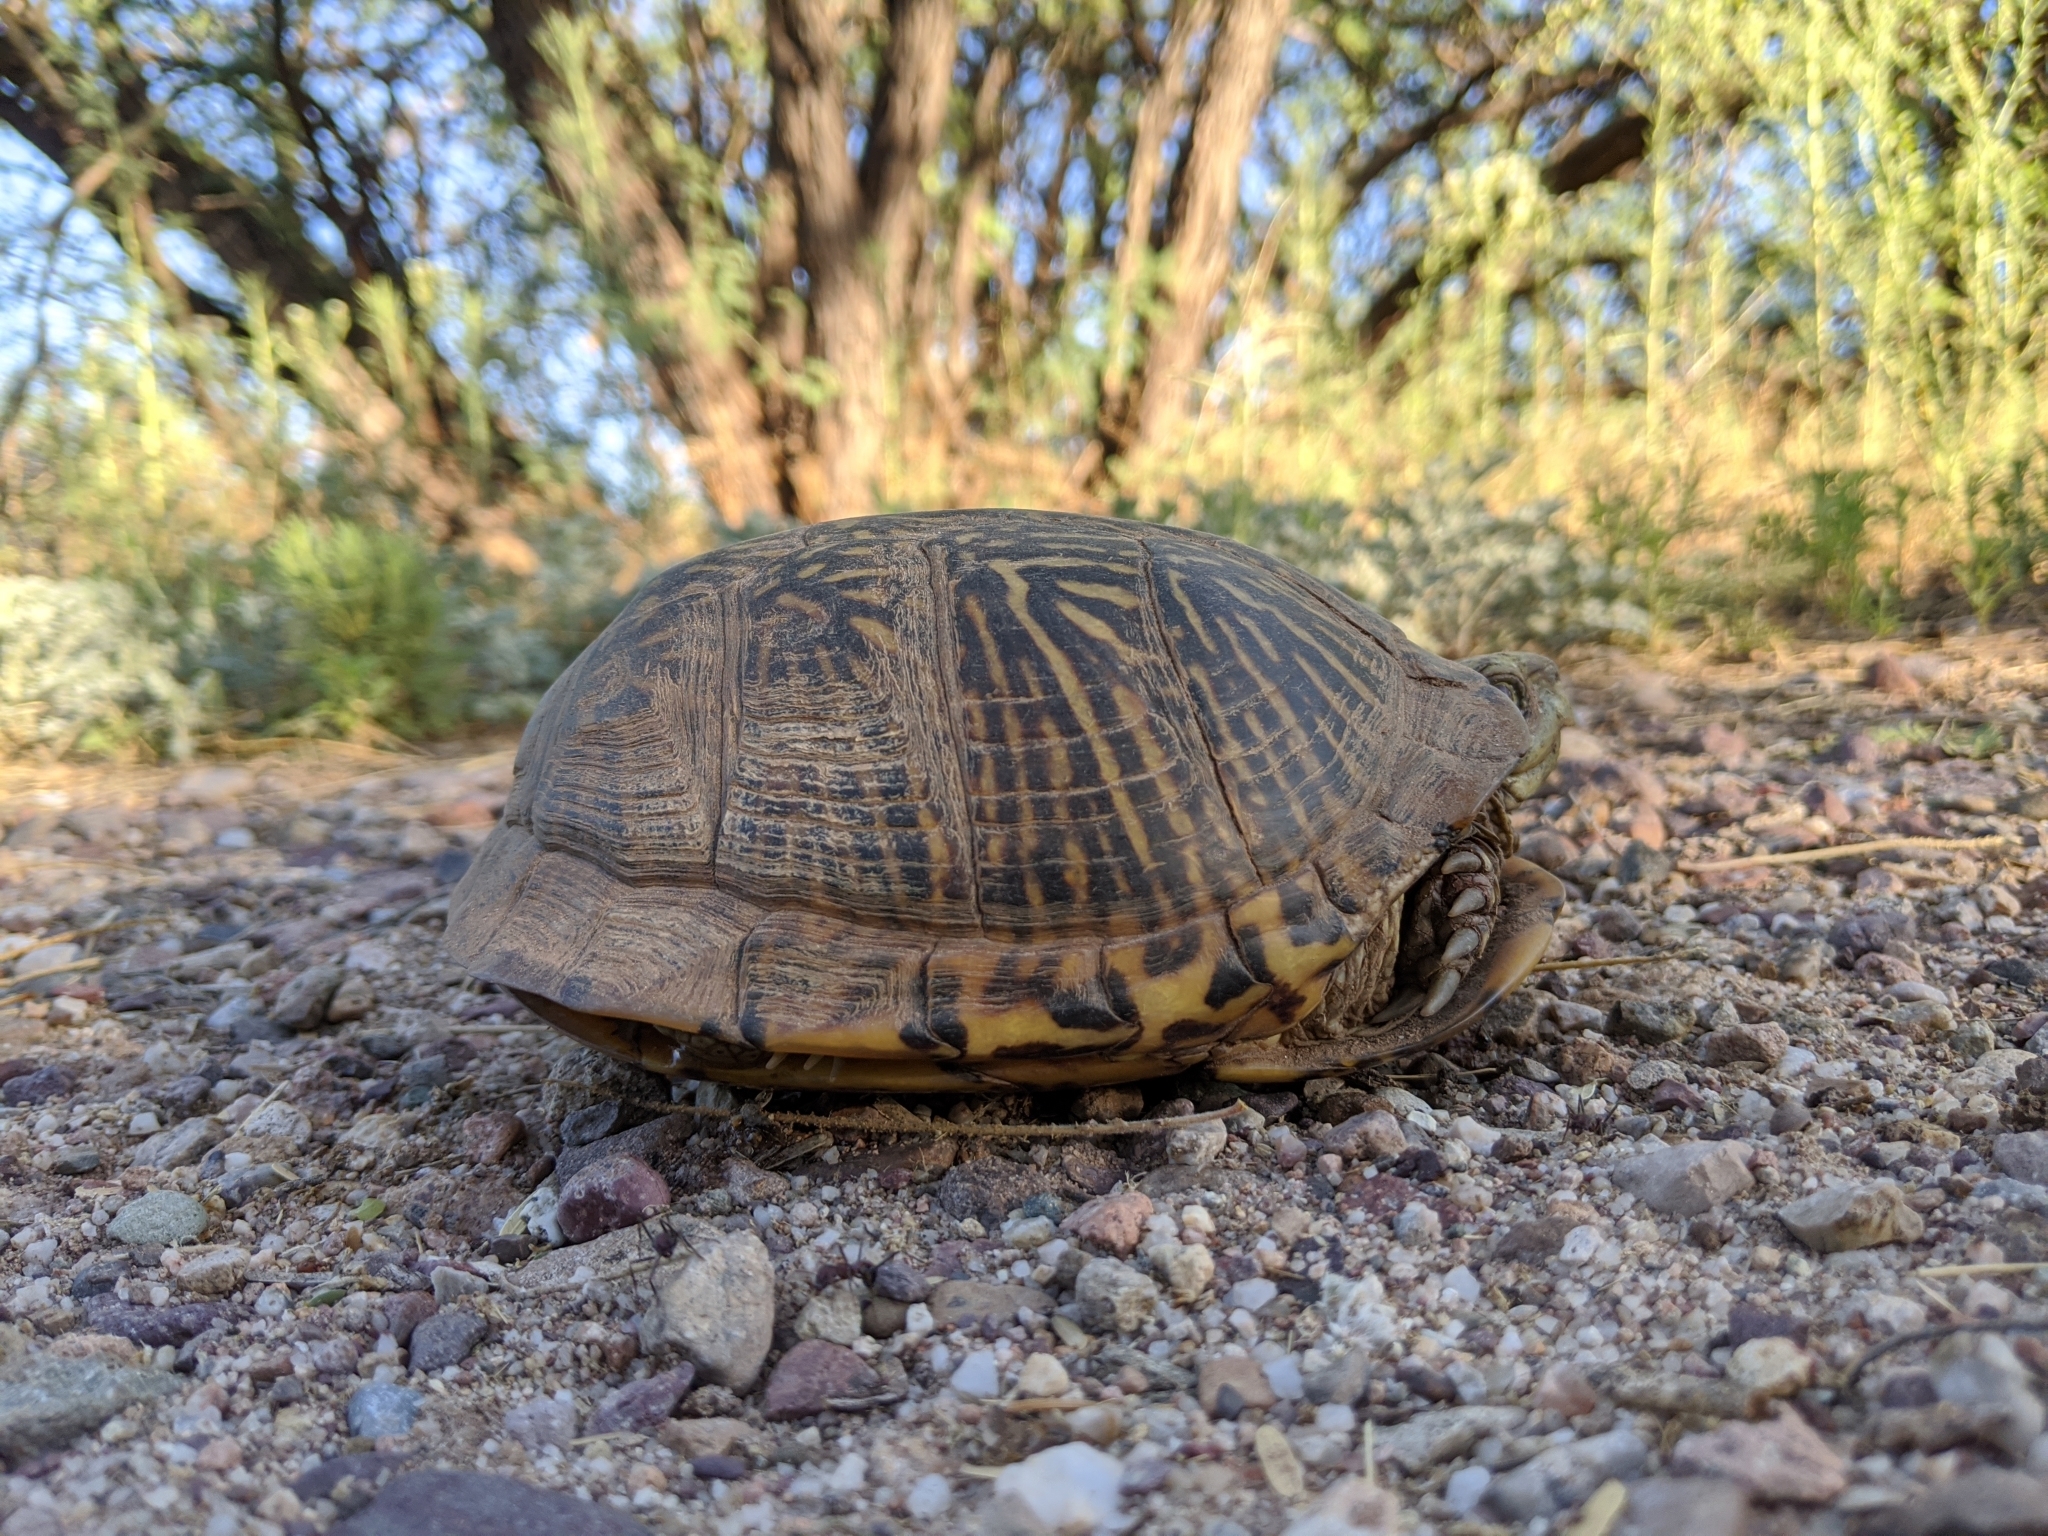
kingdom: Animalia
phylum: Chordata
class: Testudines
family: Emydidae
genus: Terrapene
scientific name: Terrapene ornata
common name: Western box turtle
